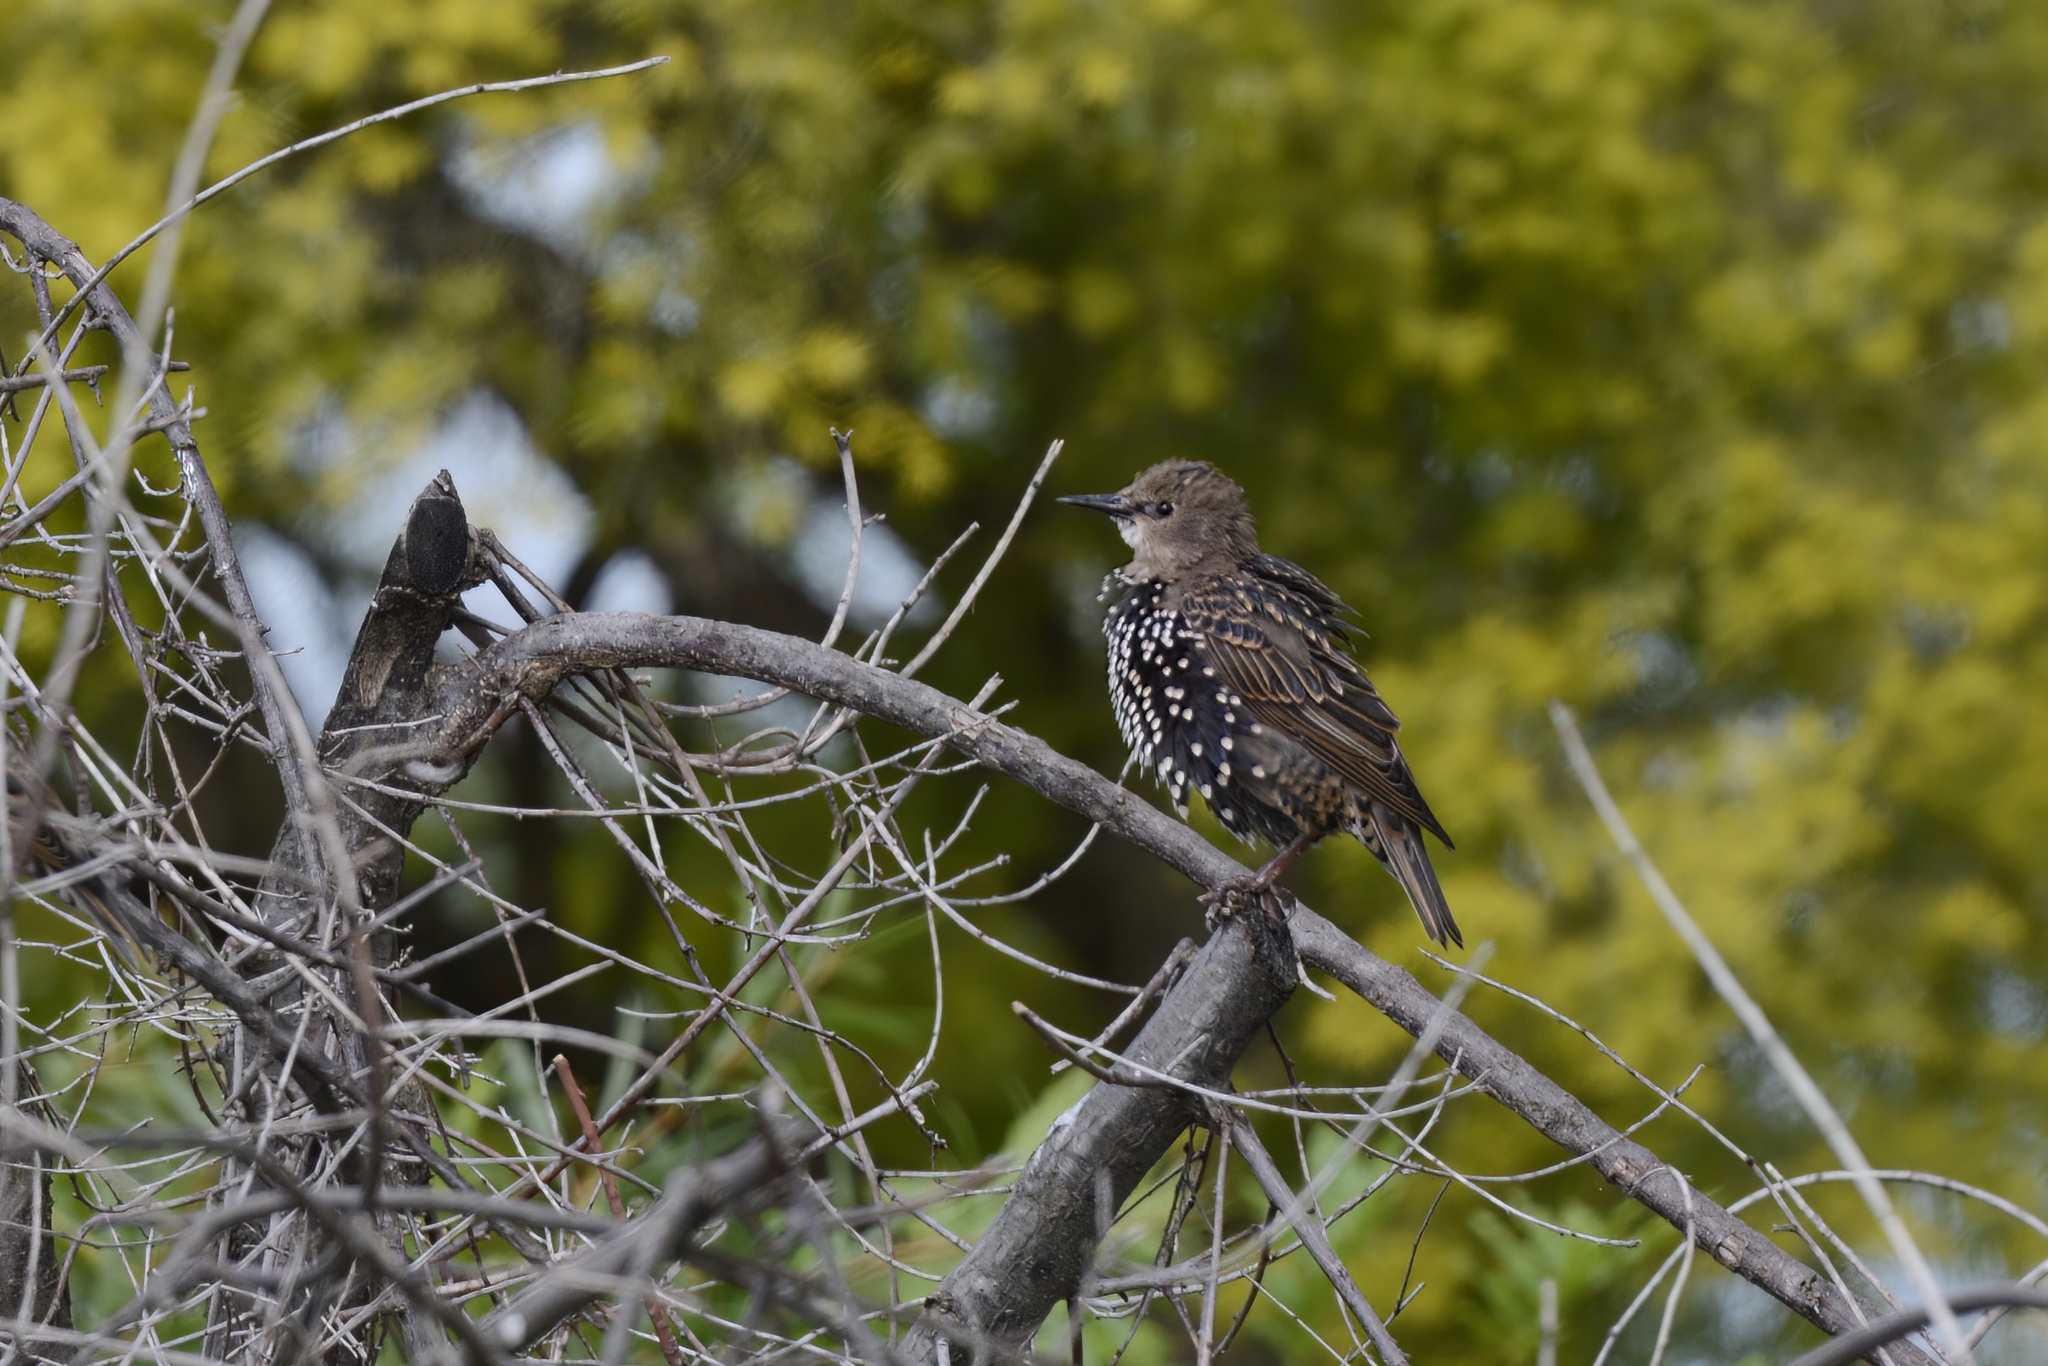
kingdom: Animalia
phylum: Chordata
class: Aves
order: Passeriformes
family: Sturnidae
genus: Sturnus
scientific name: Sturnus vulgaris
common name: Common starling
